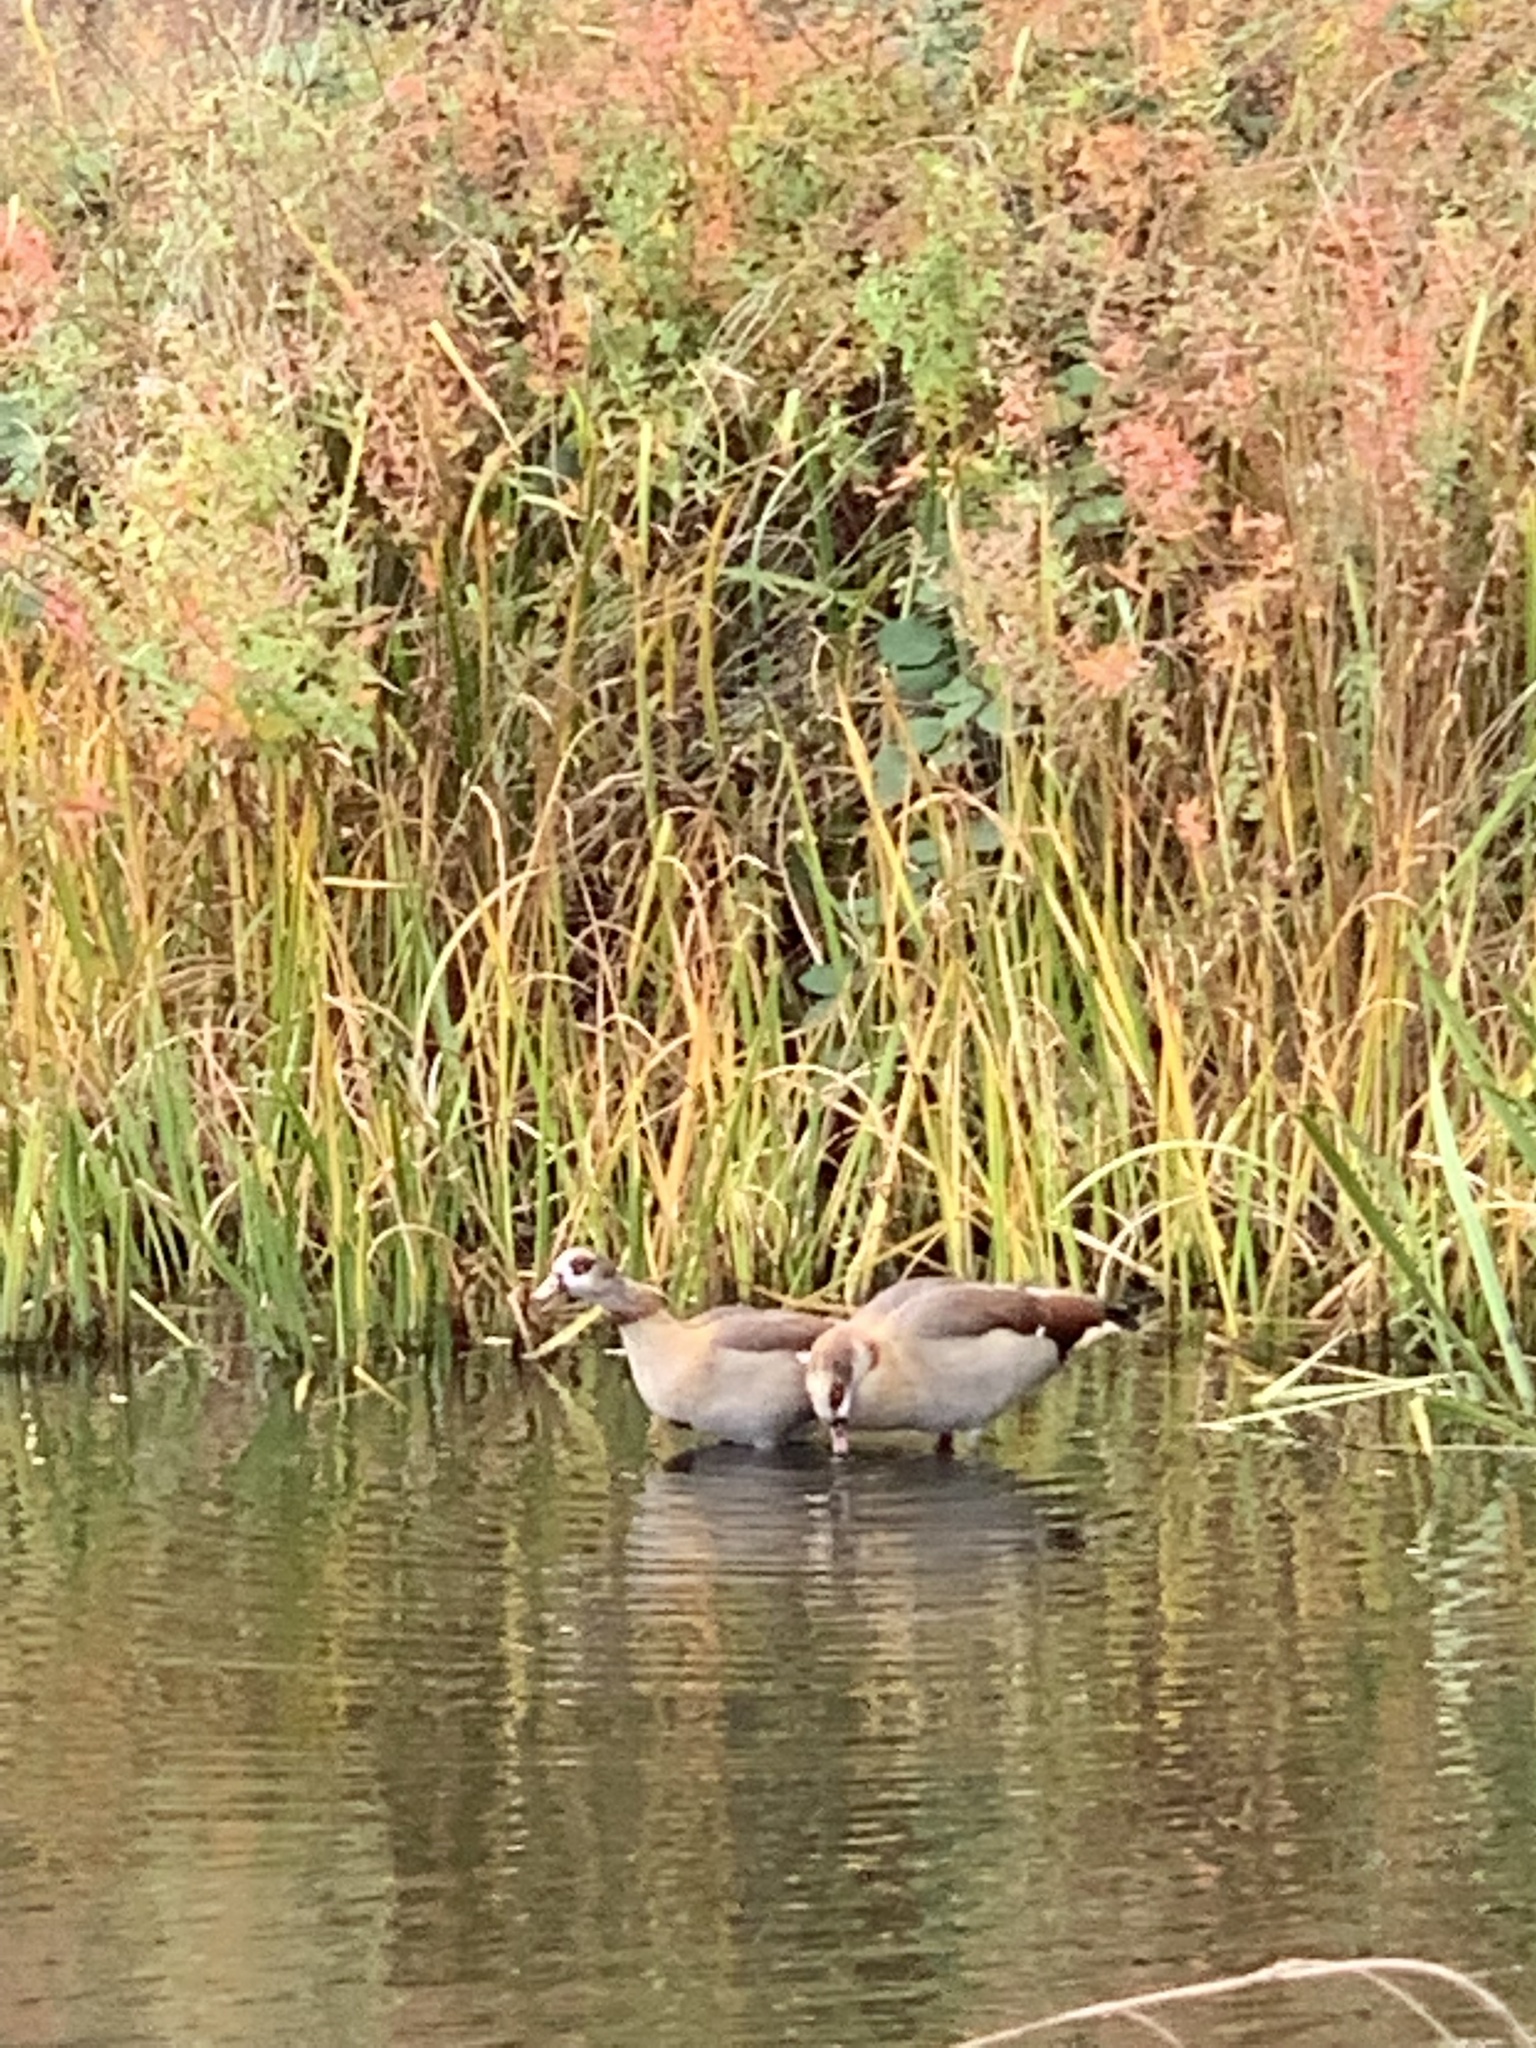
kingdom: Animalia
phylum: Chordata
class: Aves
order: Anseriformes
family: Anatidae
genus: Alopochen
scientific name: Alopochen aegyptiaca
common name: Egyptian goose
